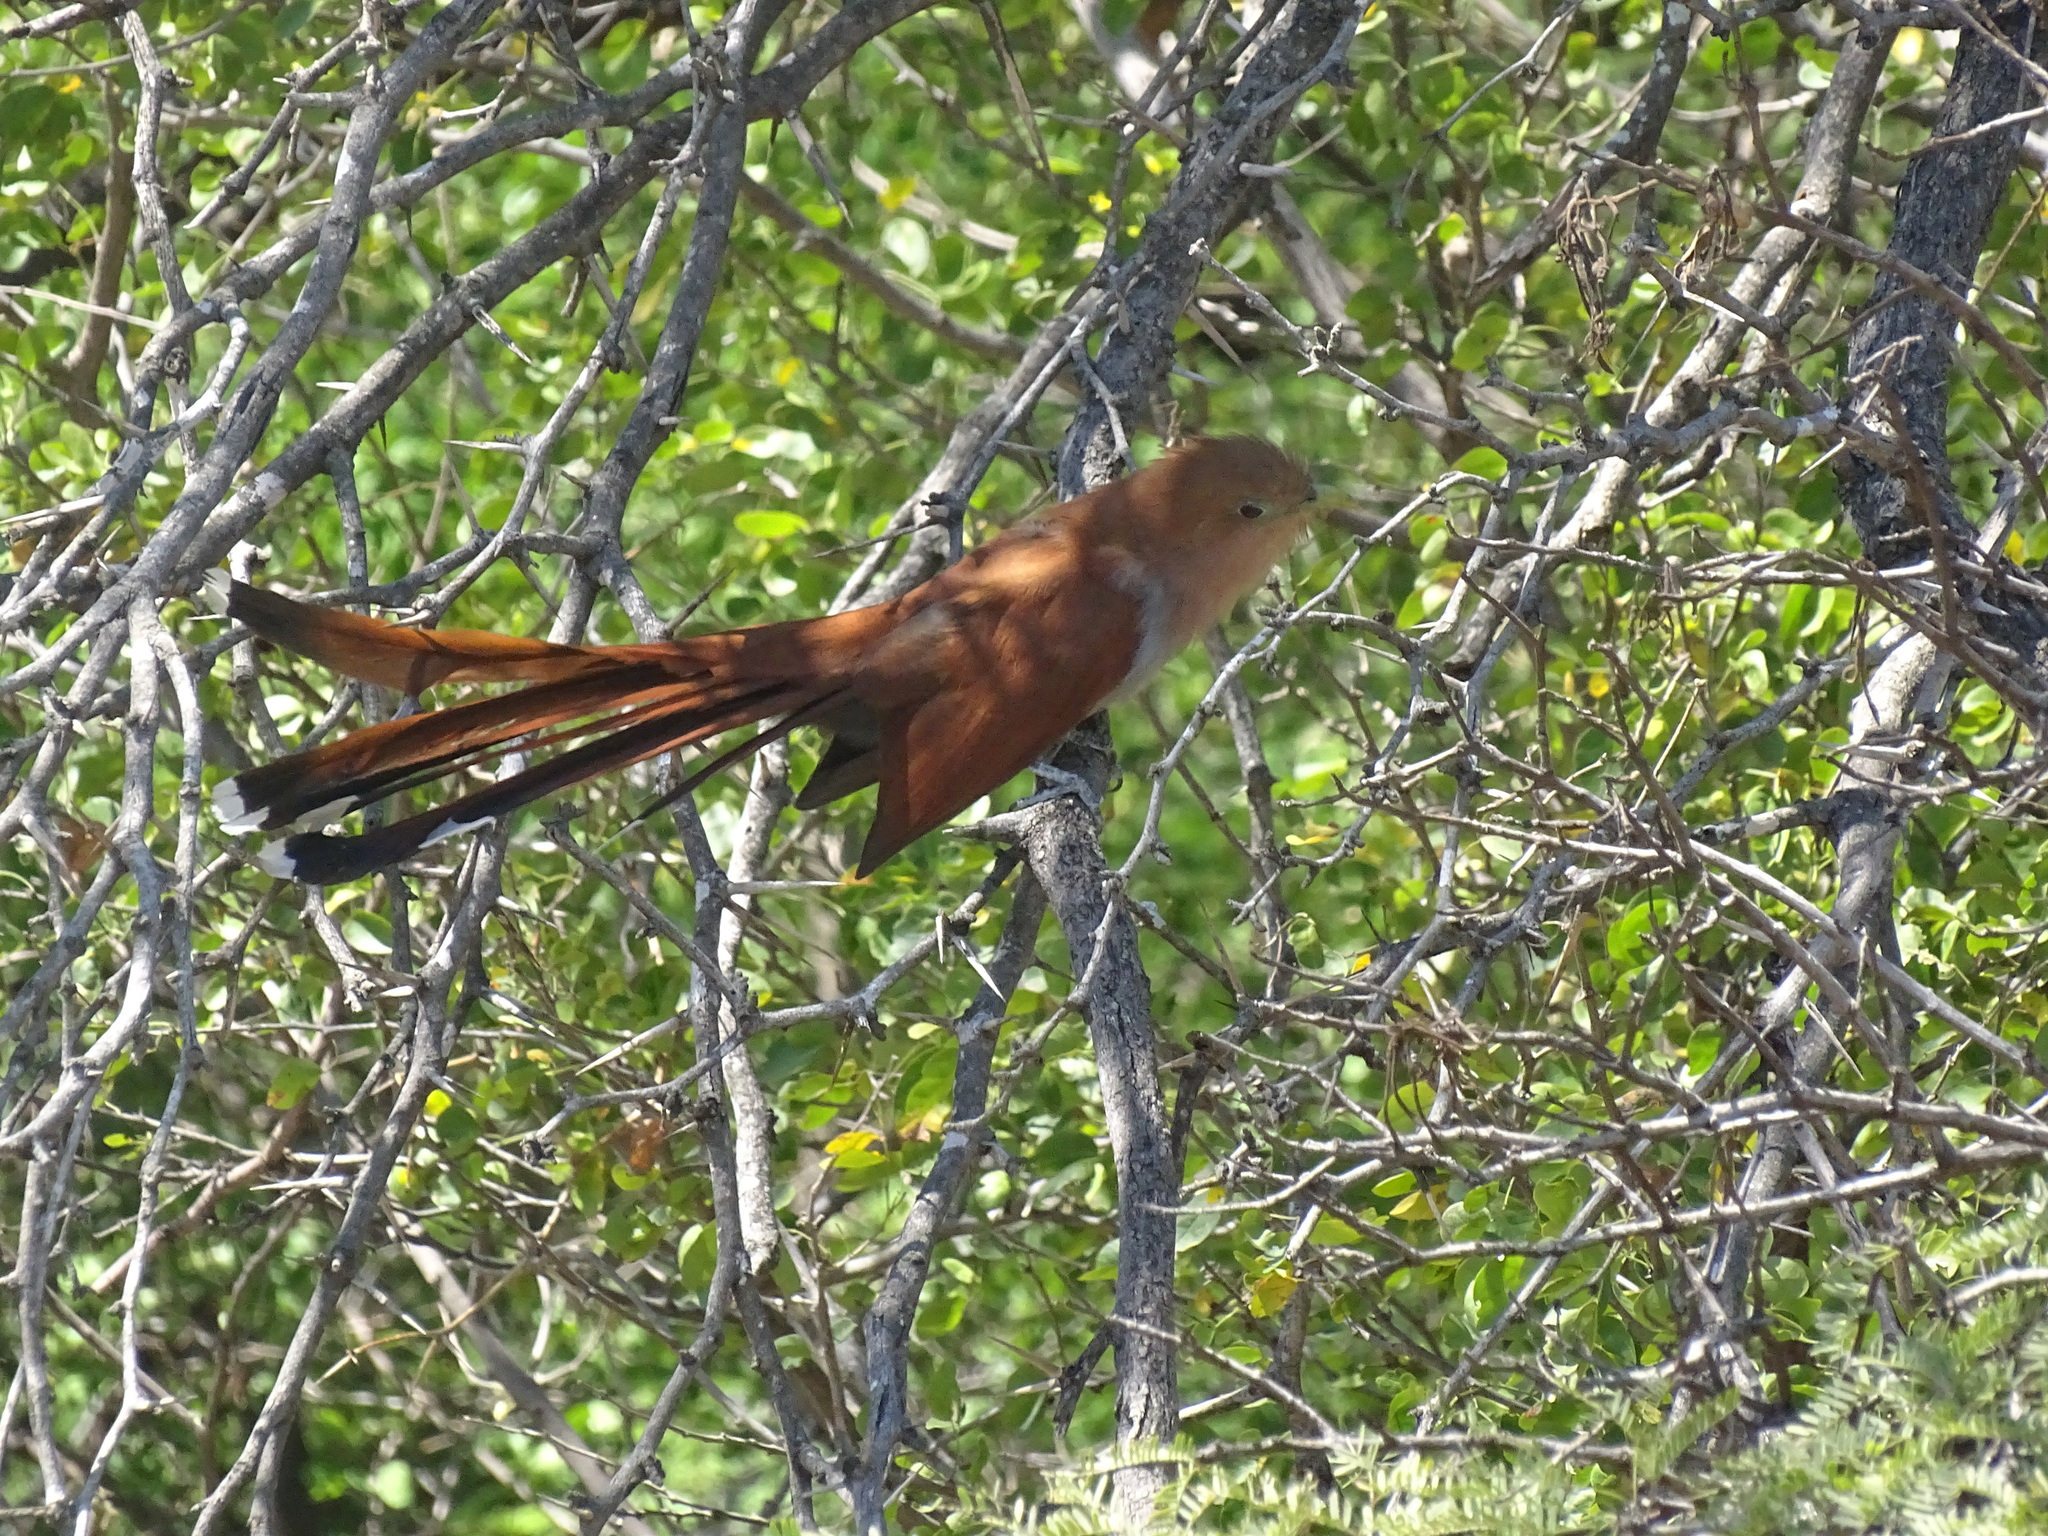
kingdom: Animalia
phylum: Chordata
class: Aves
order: Cuculiformes
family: Cuculidae
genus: Piaya
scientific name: Piaya cayana
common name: Squirrel cuckoo
